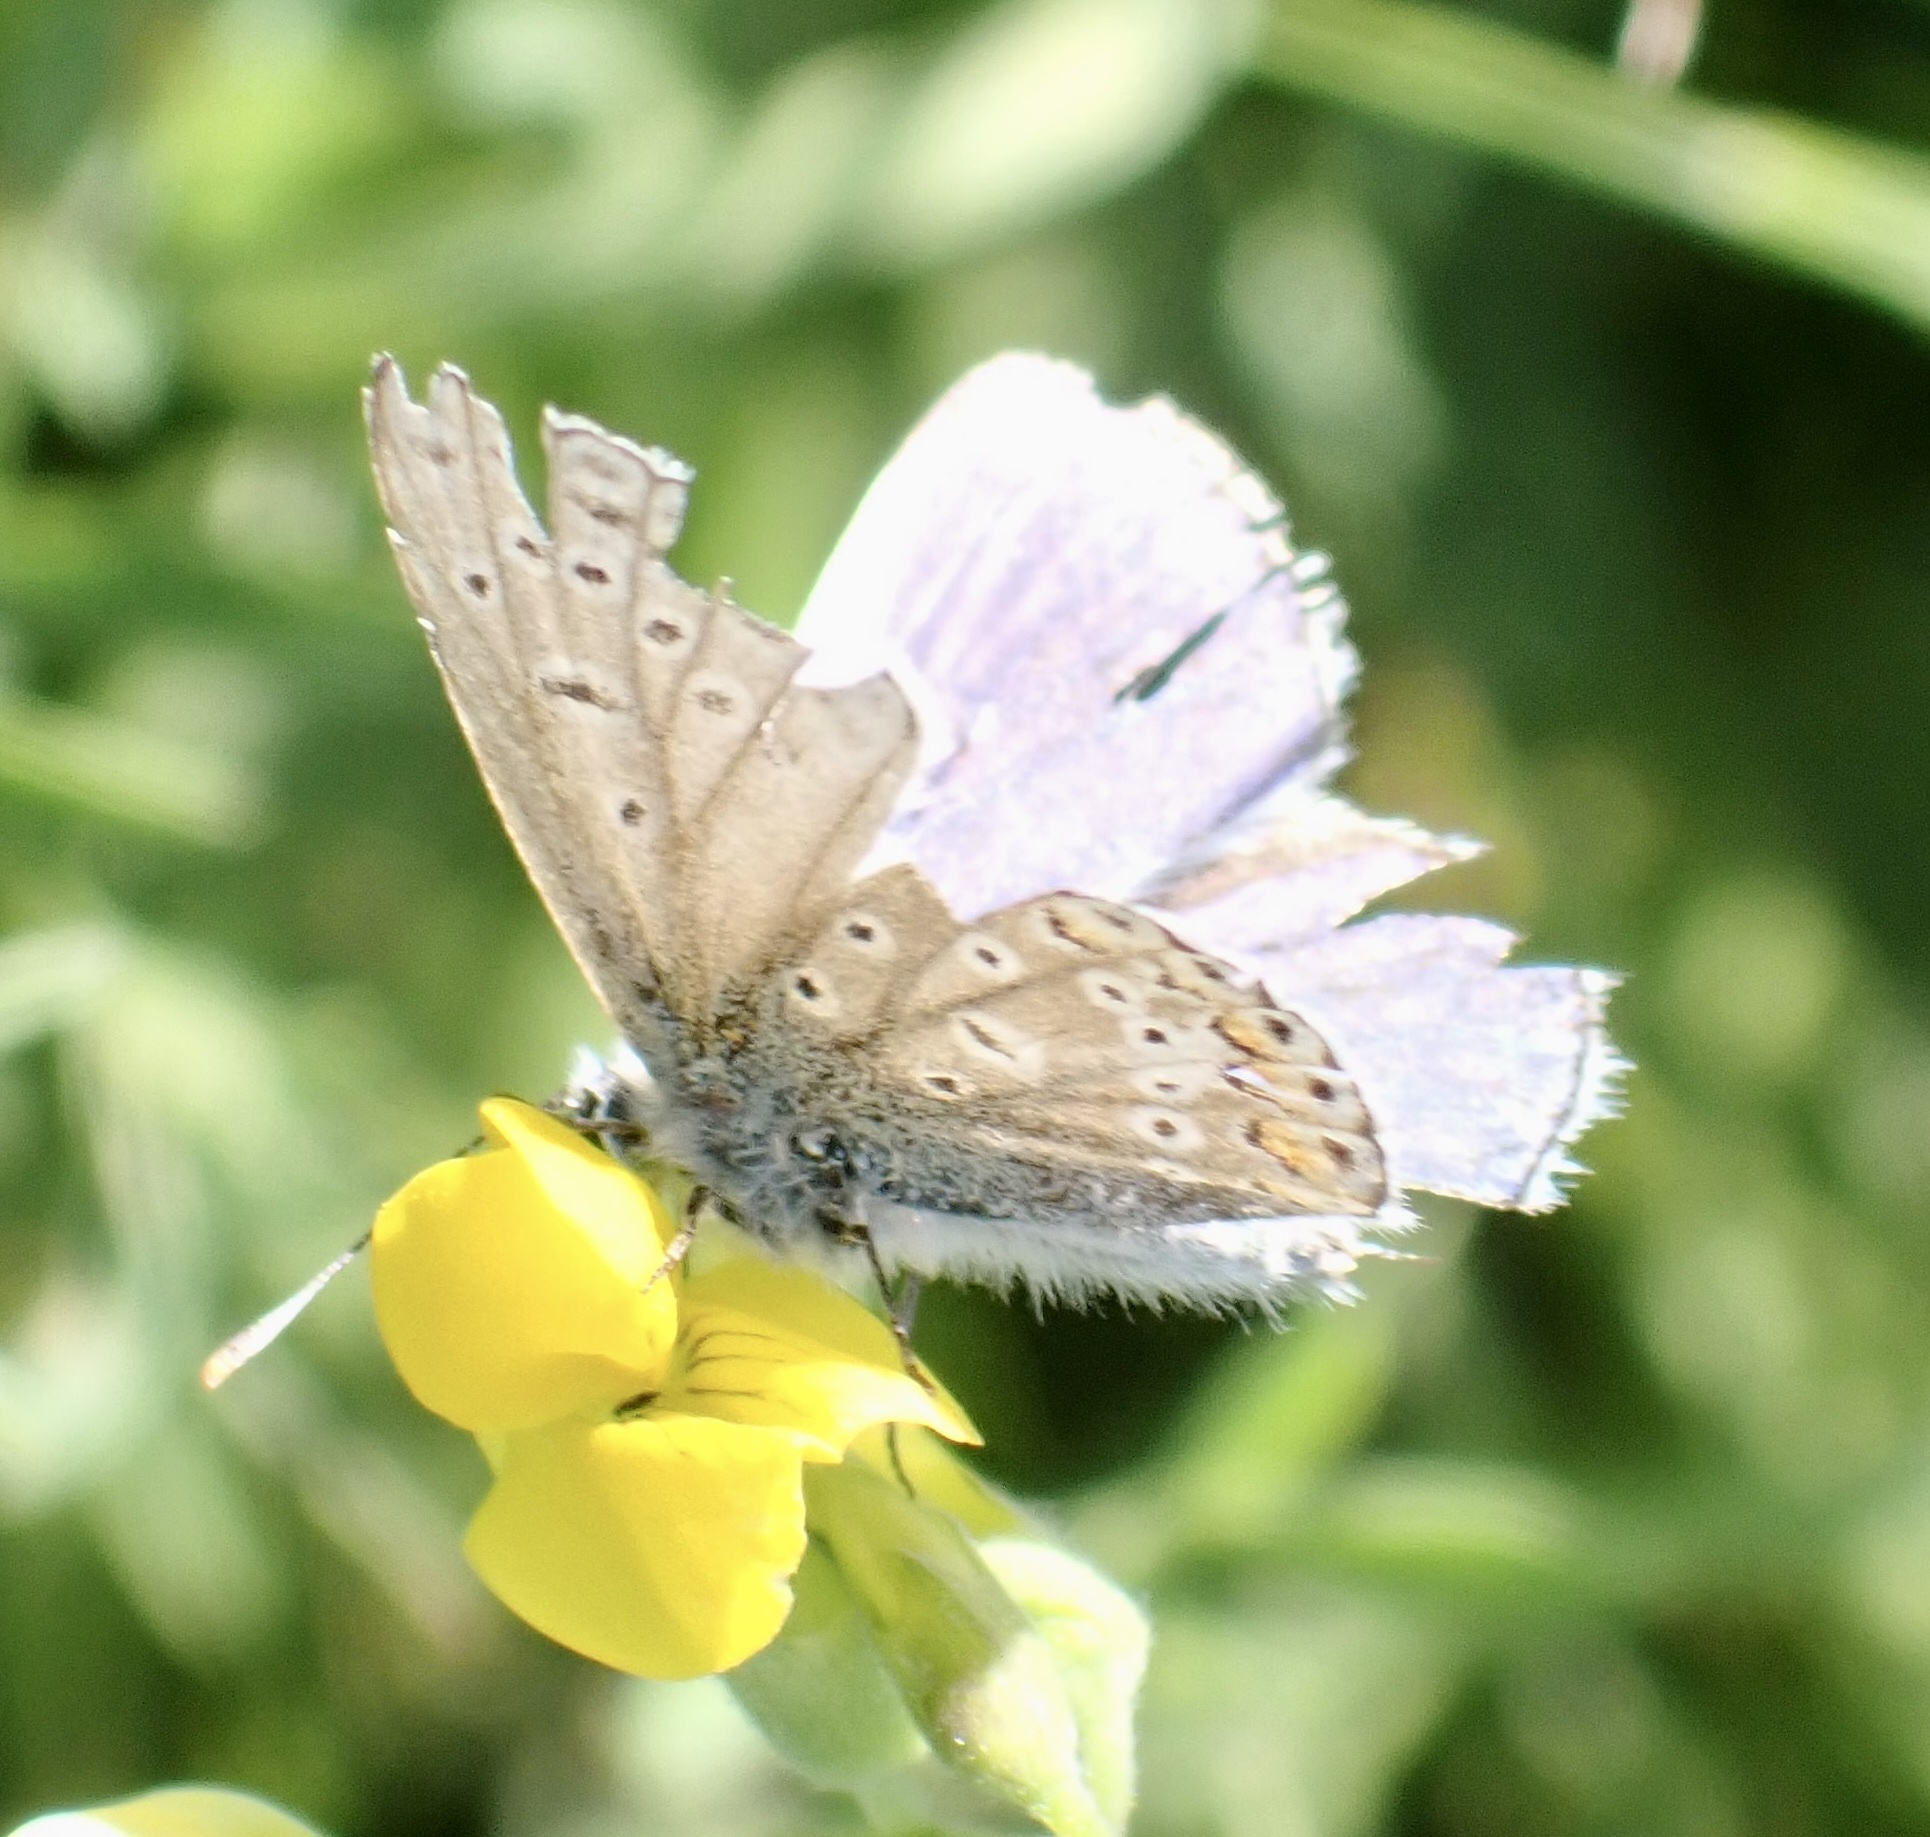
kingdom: Animalia
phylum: Arthropoda
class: Insecta
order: Lepidoptera
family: Lycaenidae
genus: Polyommatus
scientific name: Polyommatus icarus
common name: Common blue
